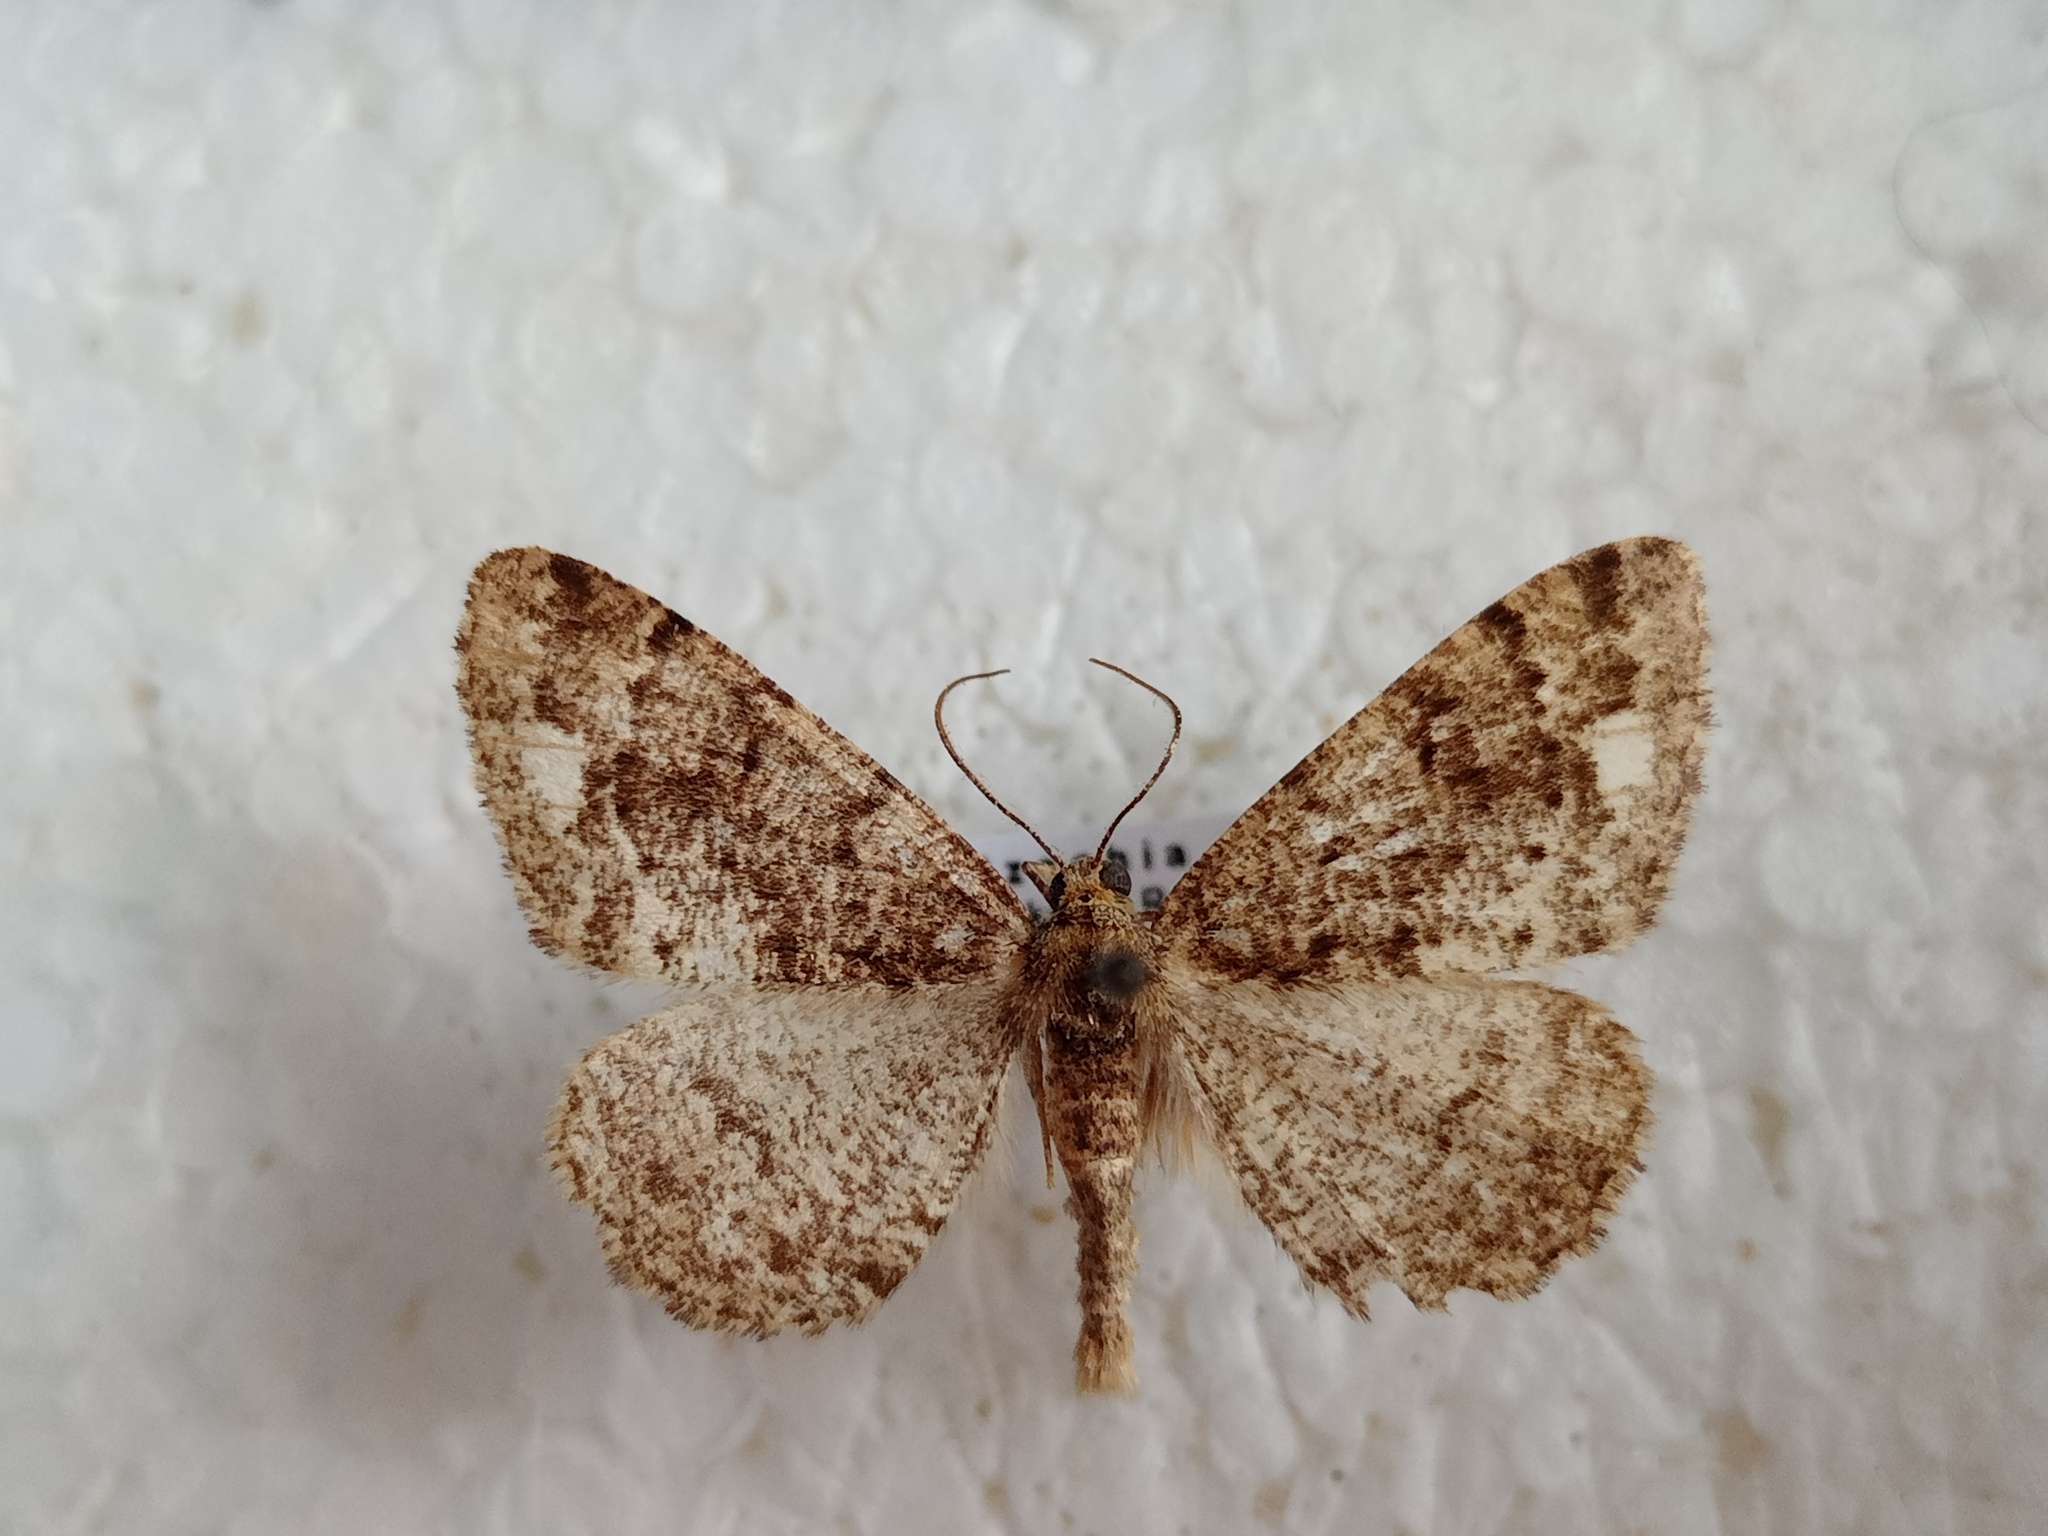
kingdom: Animalia
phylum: Arthropoda
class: Insecta
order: Lepidoptera
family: Geometridae
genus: Parectropis
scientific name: Parectropis similaria
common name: Brindled white-spot
